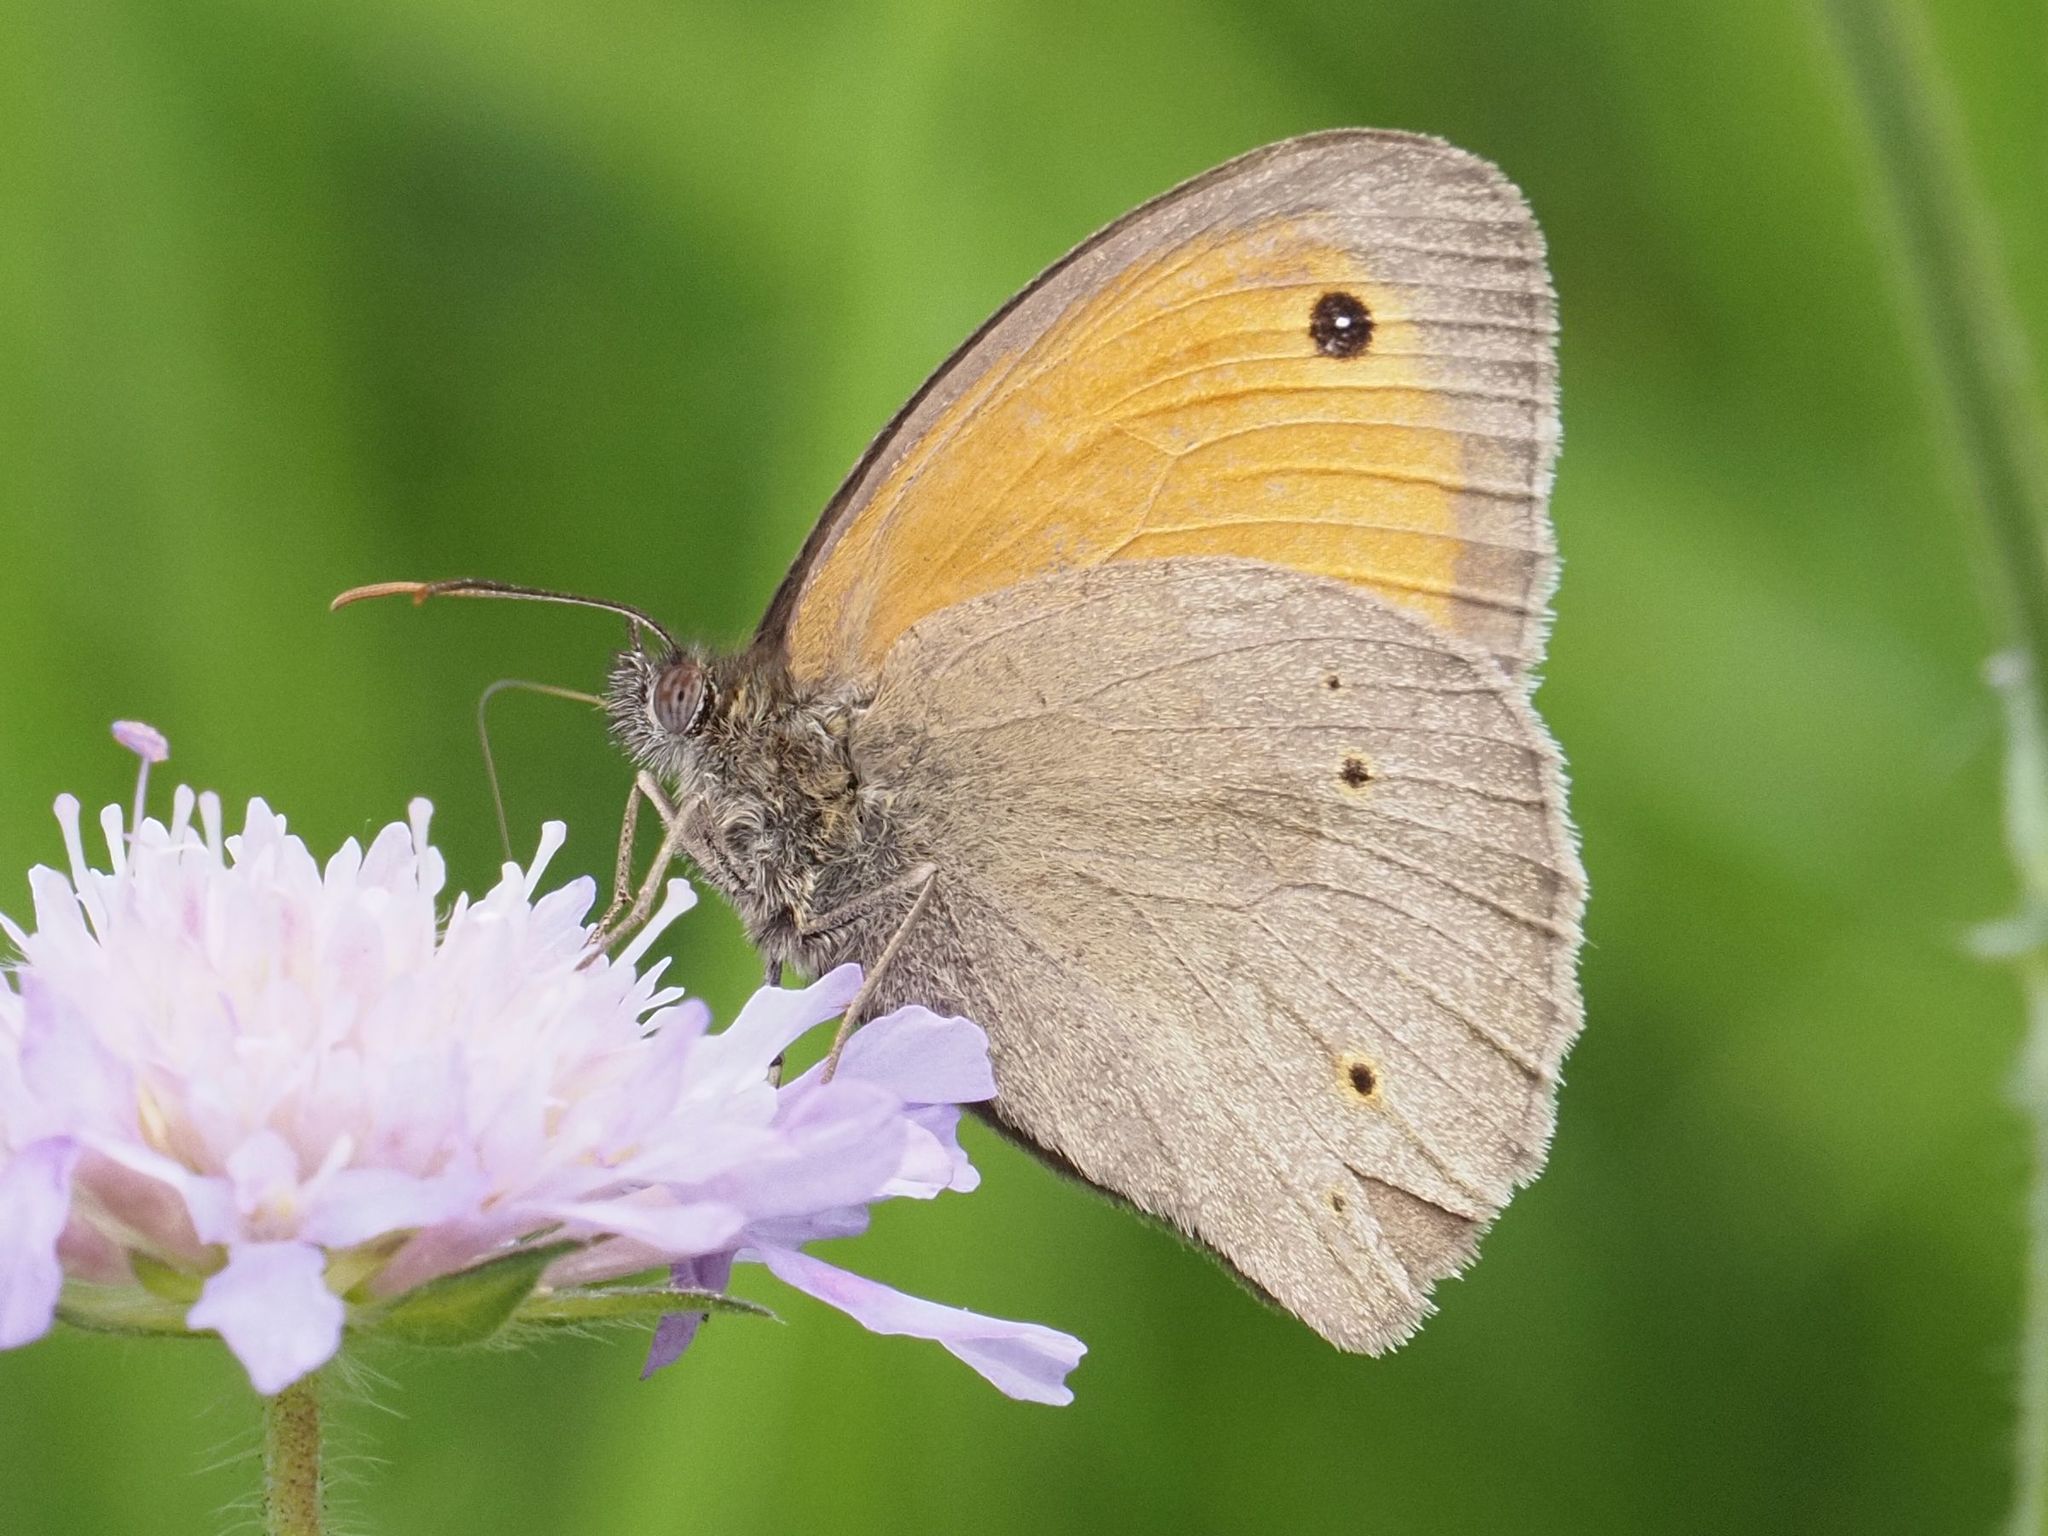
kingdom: Animalia
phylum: Arthropoda
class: Insecta
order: Lepidoptera
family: Nymphalidae
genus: Maniola
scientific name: Maniola jurtina
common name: Meadow brown
